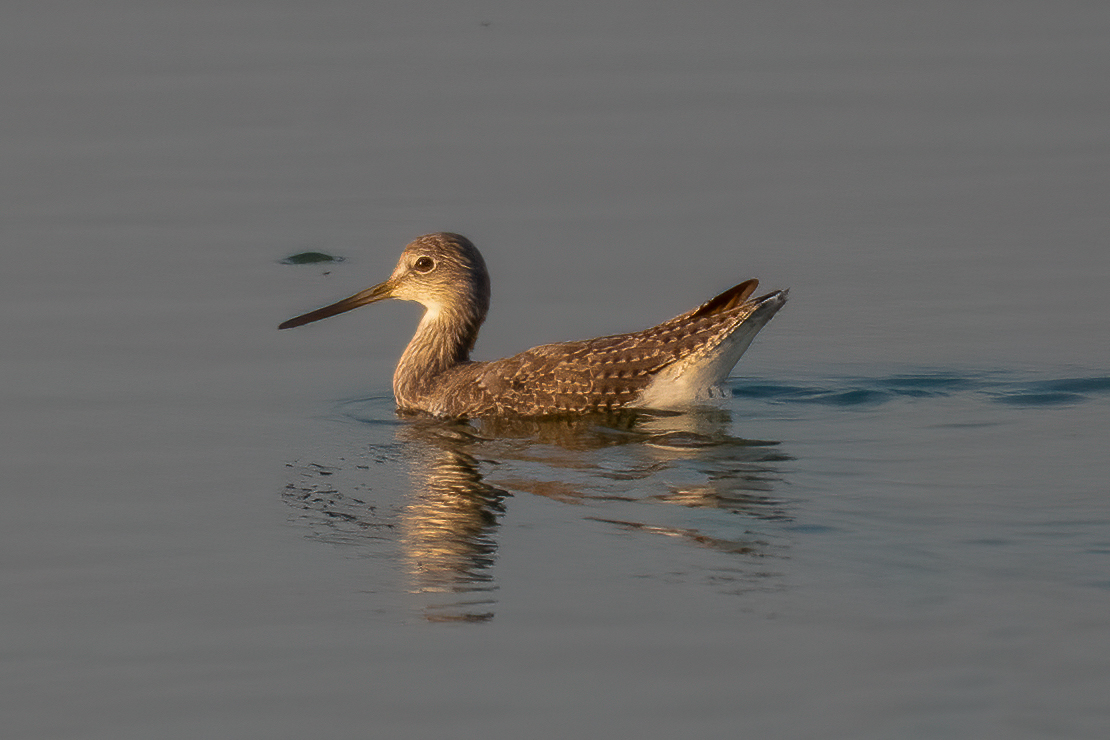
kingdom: Animalia
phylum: Chordata
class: Aves
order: Charadriiformes
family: Scolopacidae
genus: Tringa
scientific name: Tringa melanoleuca
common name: Greater yellowlegs
